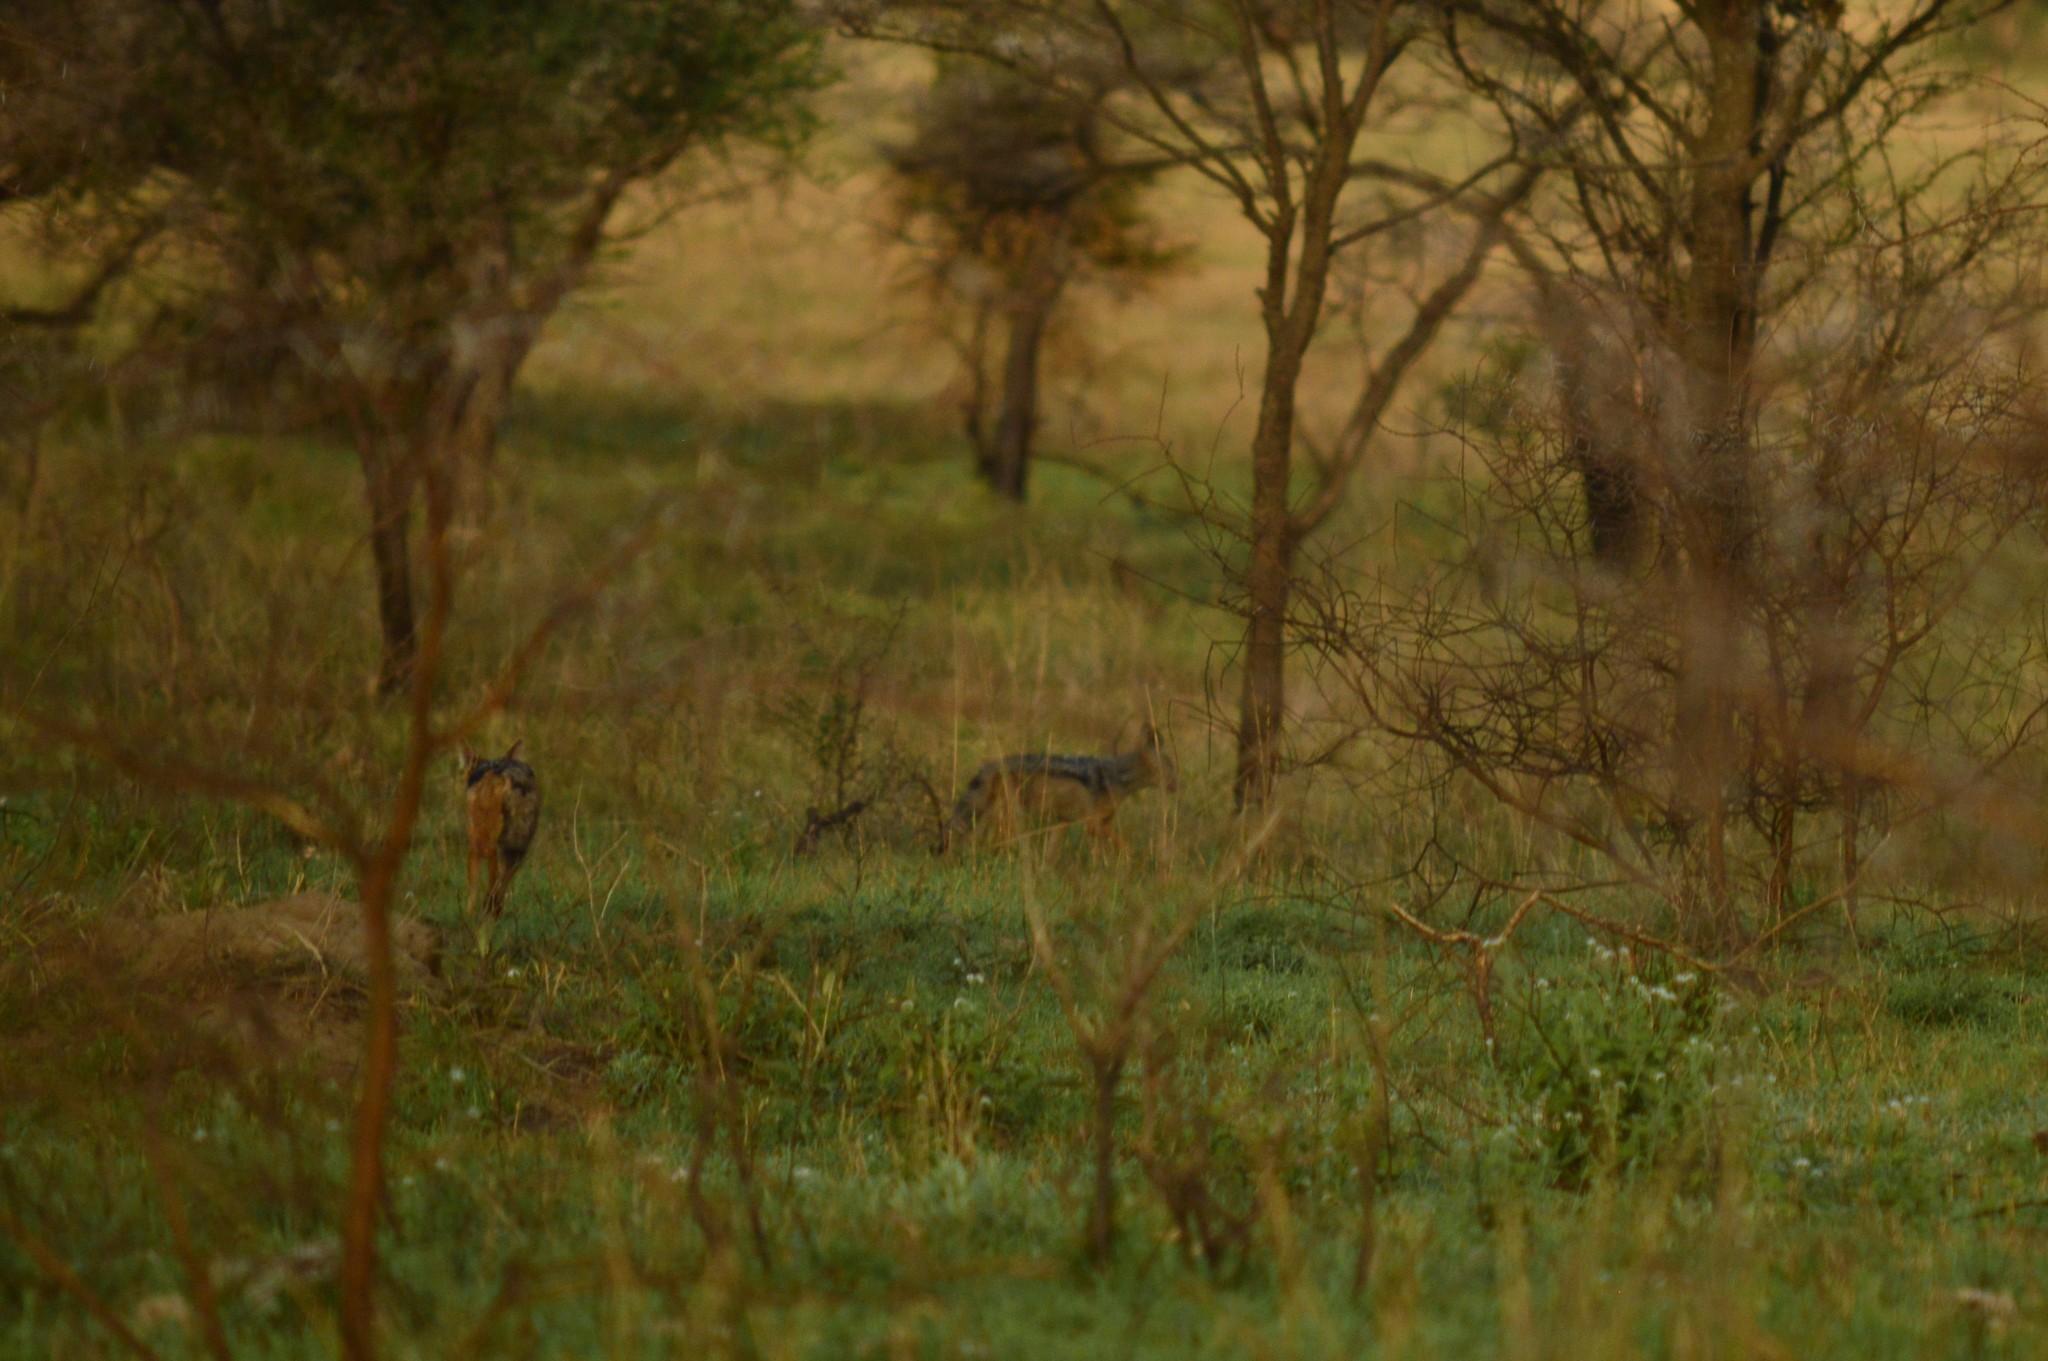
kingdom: Animalia
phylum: Chordata
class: Mammalia
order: Carnivora
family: Canidae
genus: Lupulella
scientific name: Lupulella
